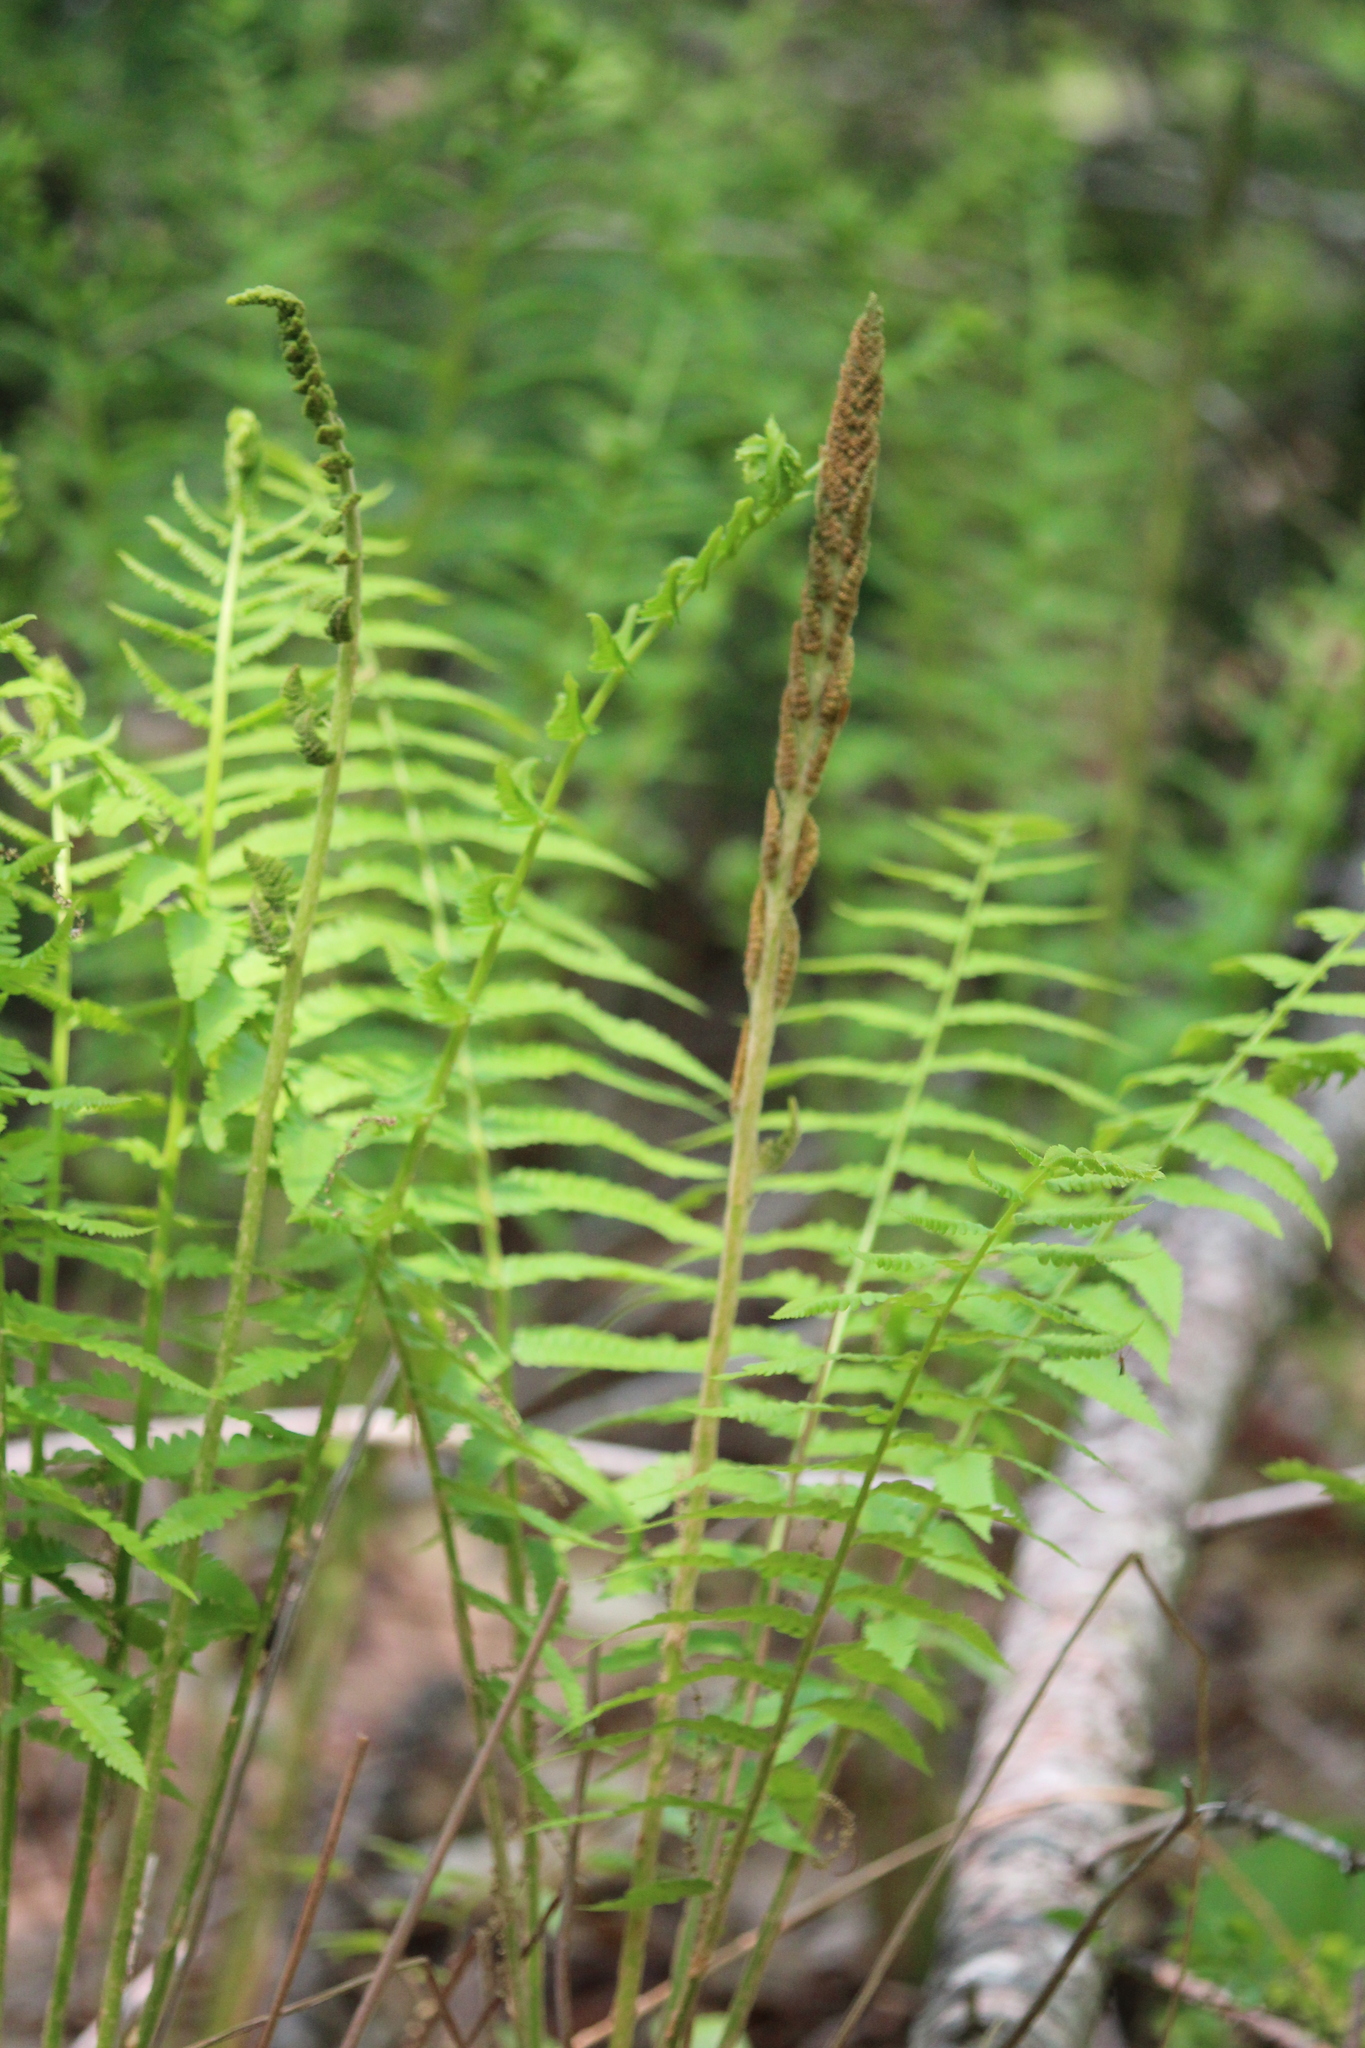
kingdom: Plantae
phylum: Tracheophyta
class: Polypodiopsida
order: Osmundales
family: Osmundaceae
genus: Osmundastrum
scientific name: Osmundastrum cinnamomeum
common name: Cinnamon fern
